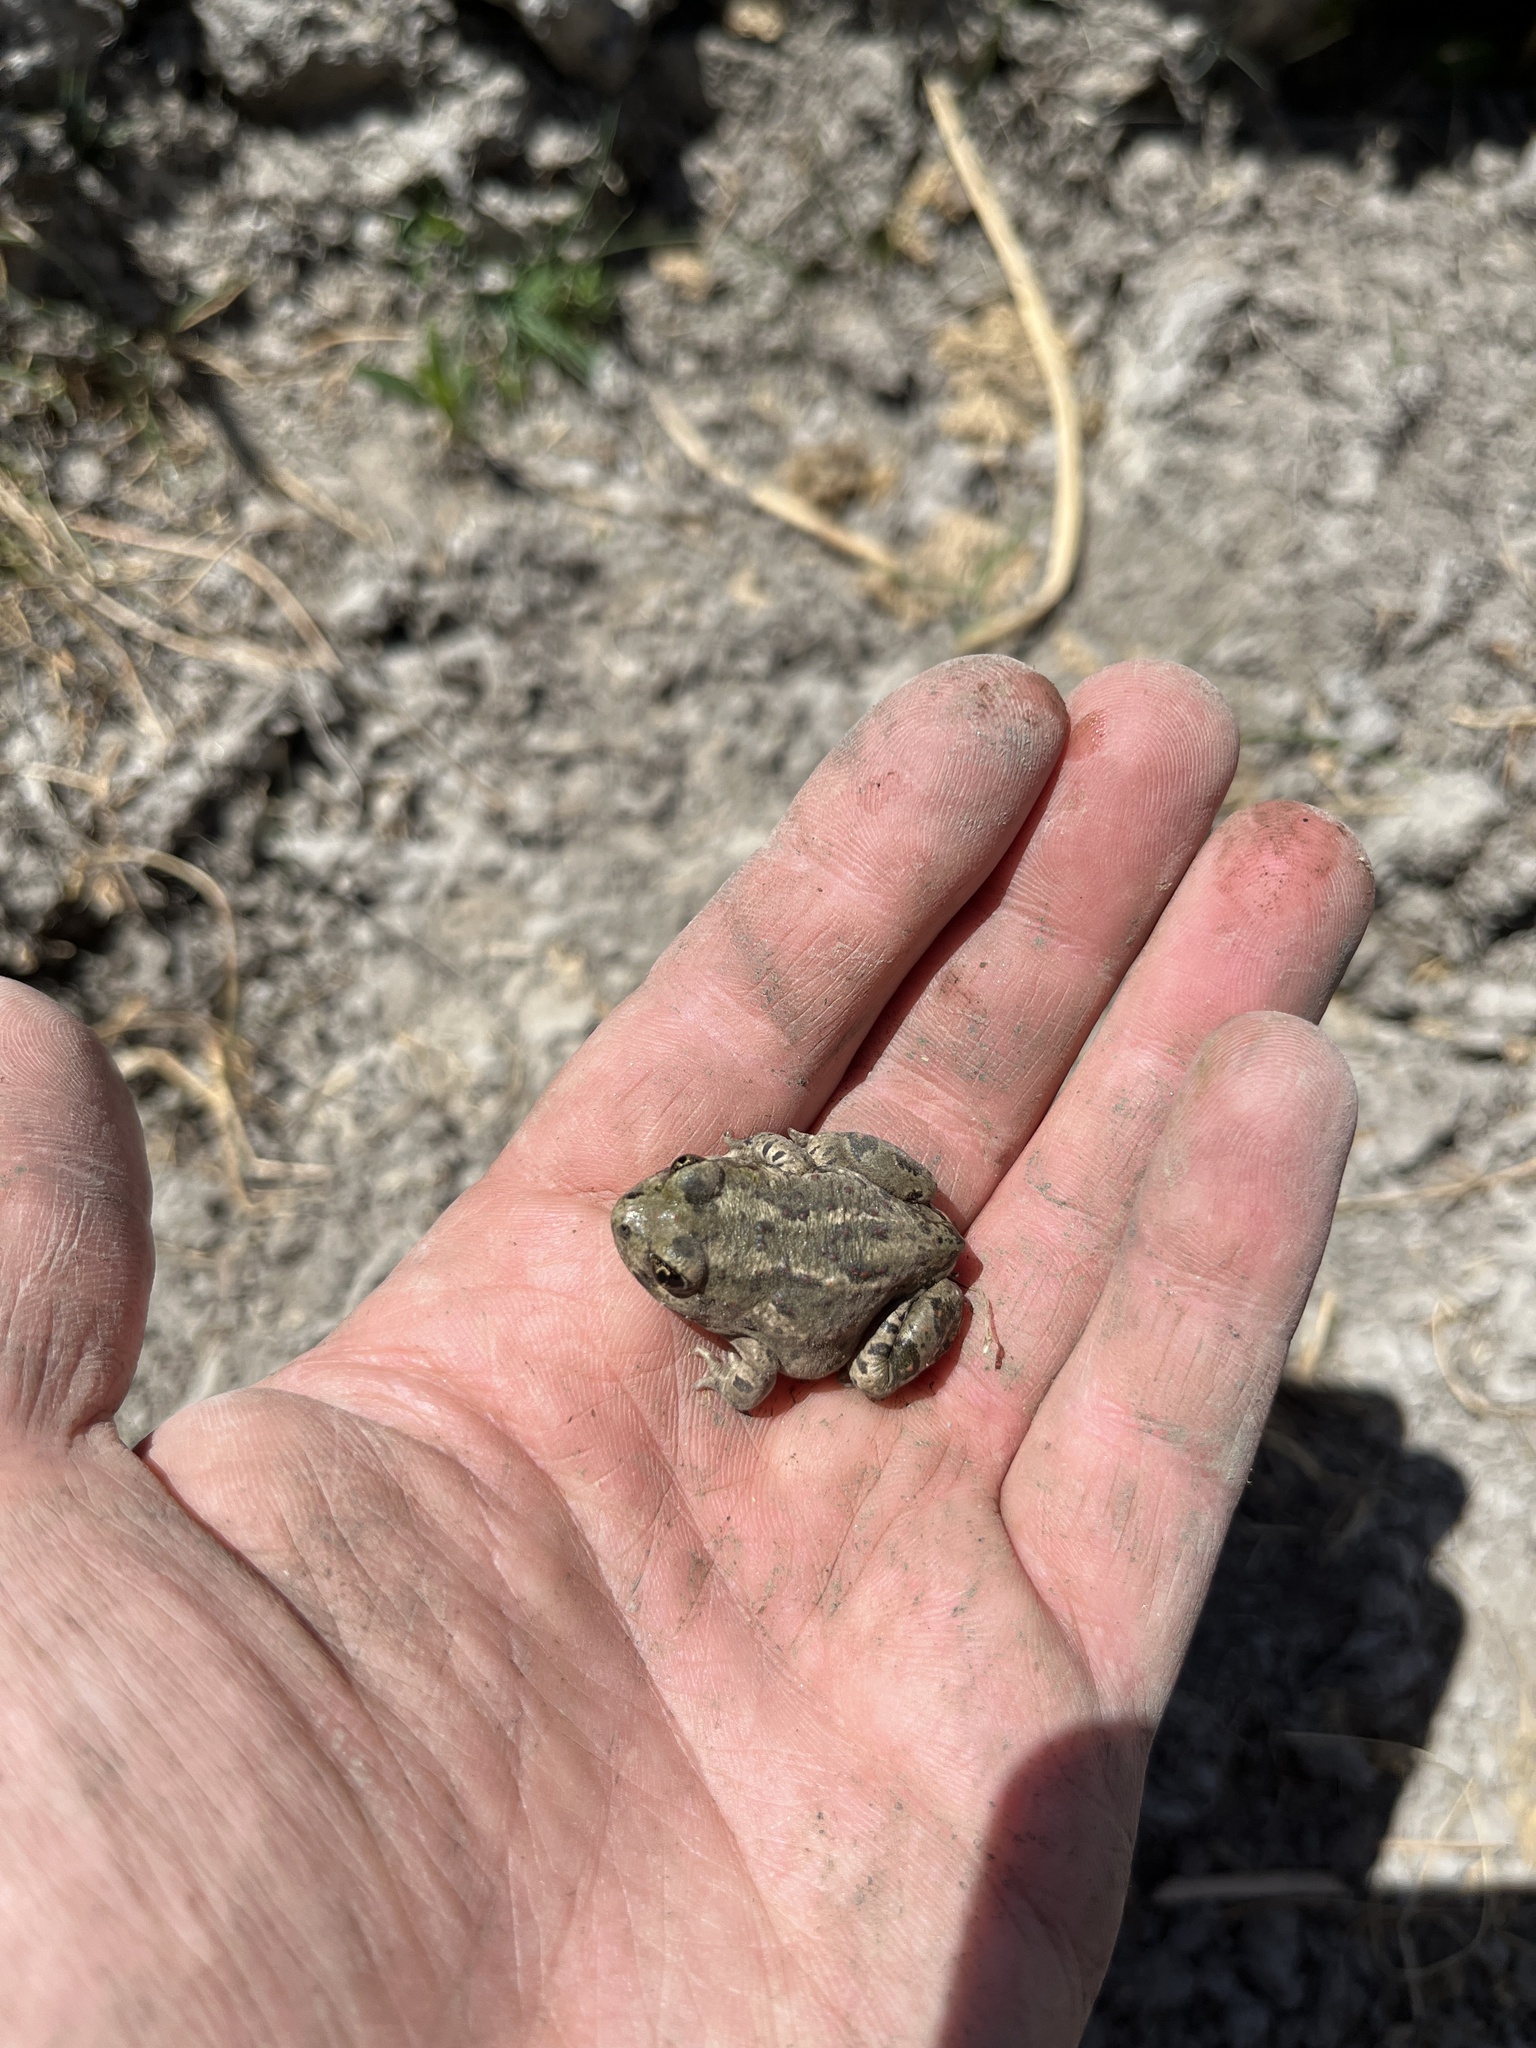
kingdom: Animalia
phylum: Chordata
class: Amphibia
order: Anura
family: Scaphiopodidae
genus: Spea
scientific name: Spea intermontana
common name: Great basin spadefoot
